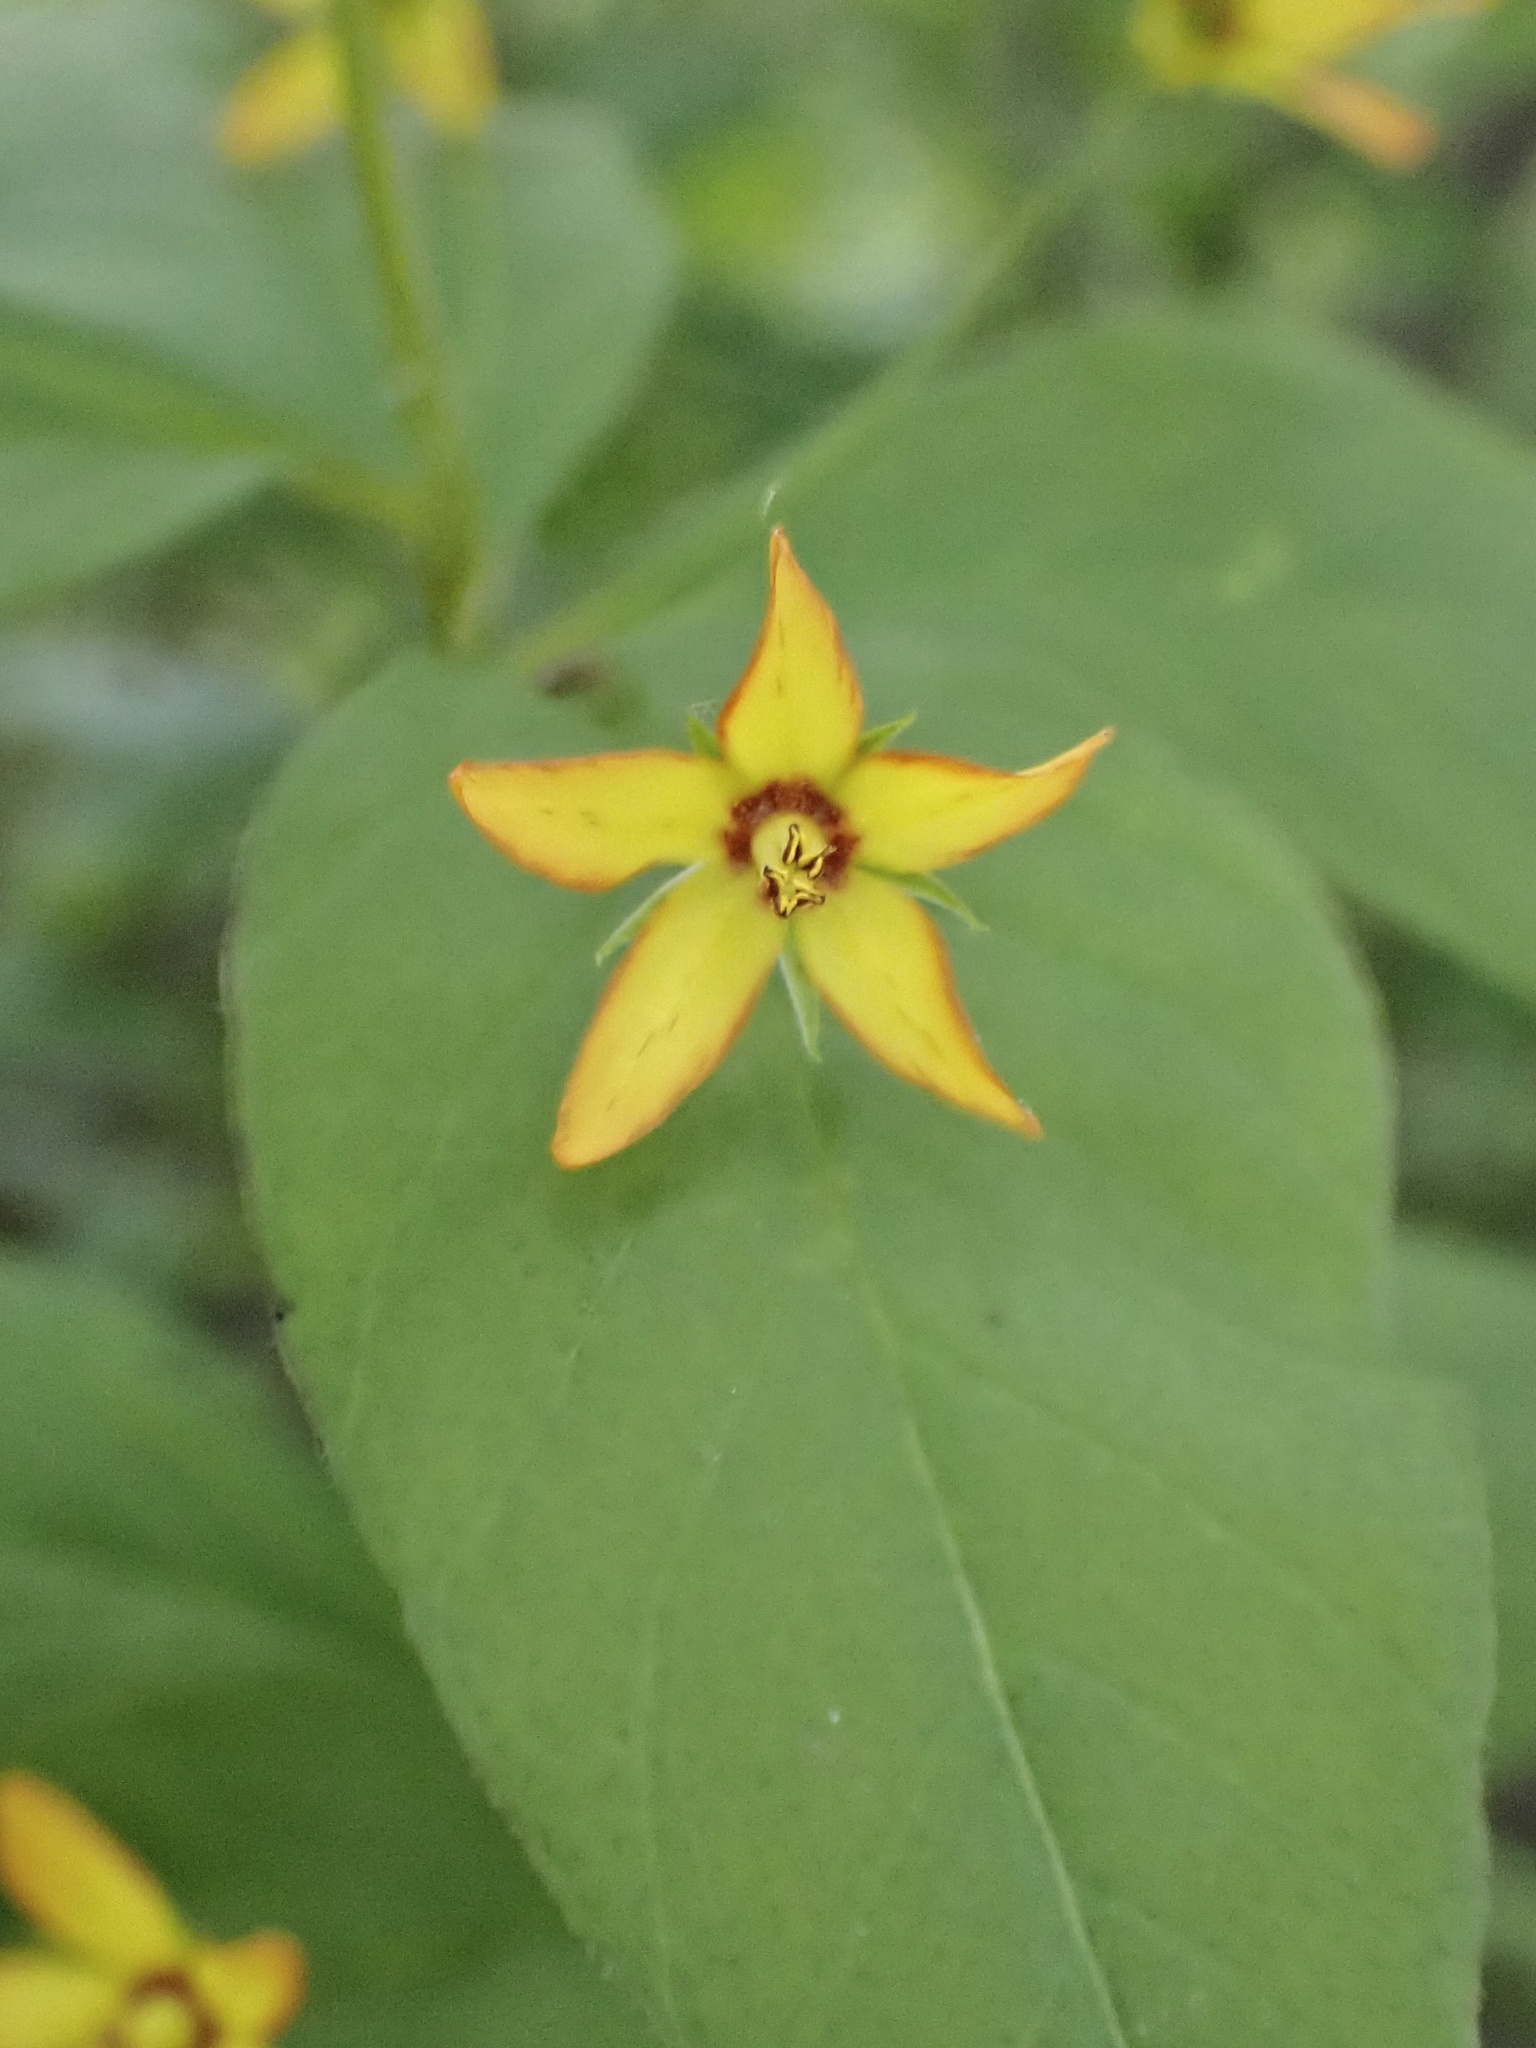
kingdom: Plantae
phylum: Tracheophyta
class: Magnoliopsida
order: Ericales
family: Primulaceae
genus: Lysimachia
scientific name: Lysimachia quadrifolia
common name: Whorled loosestrife
